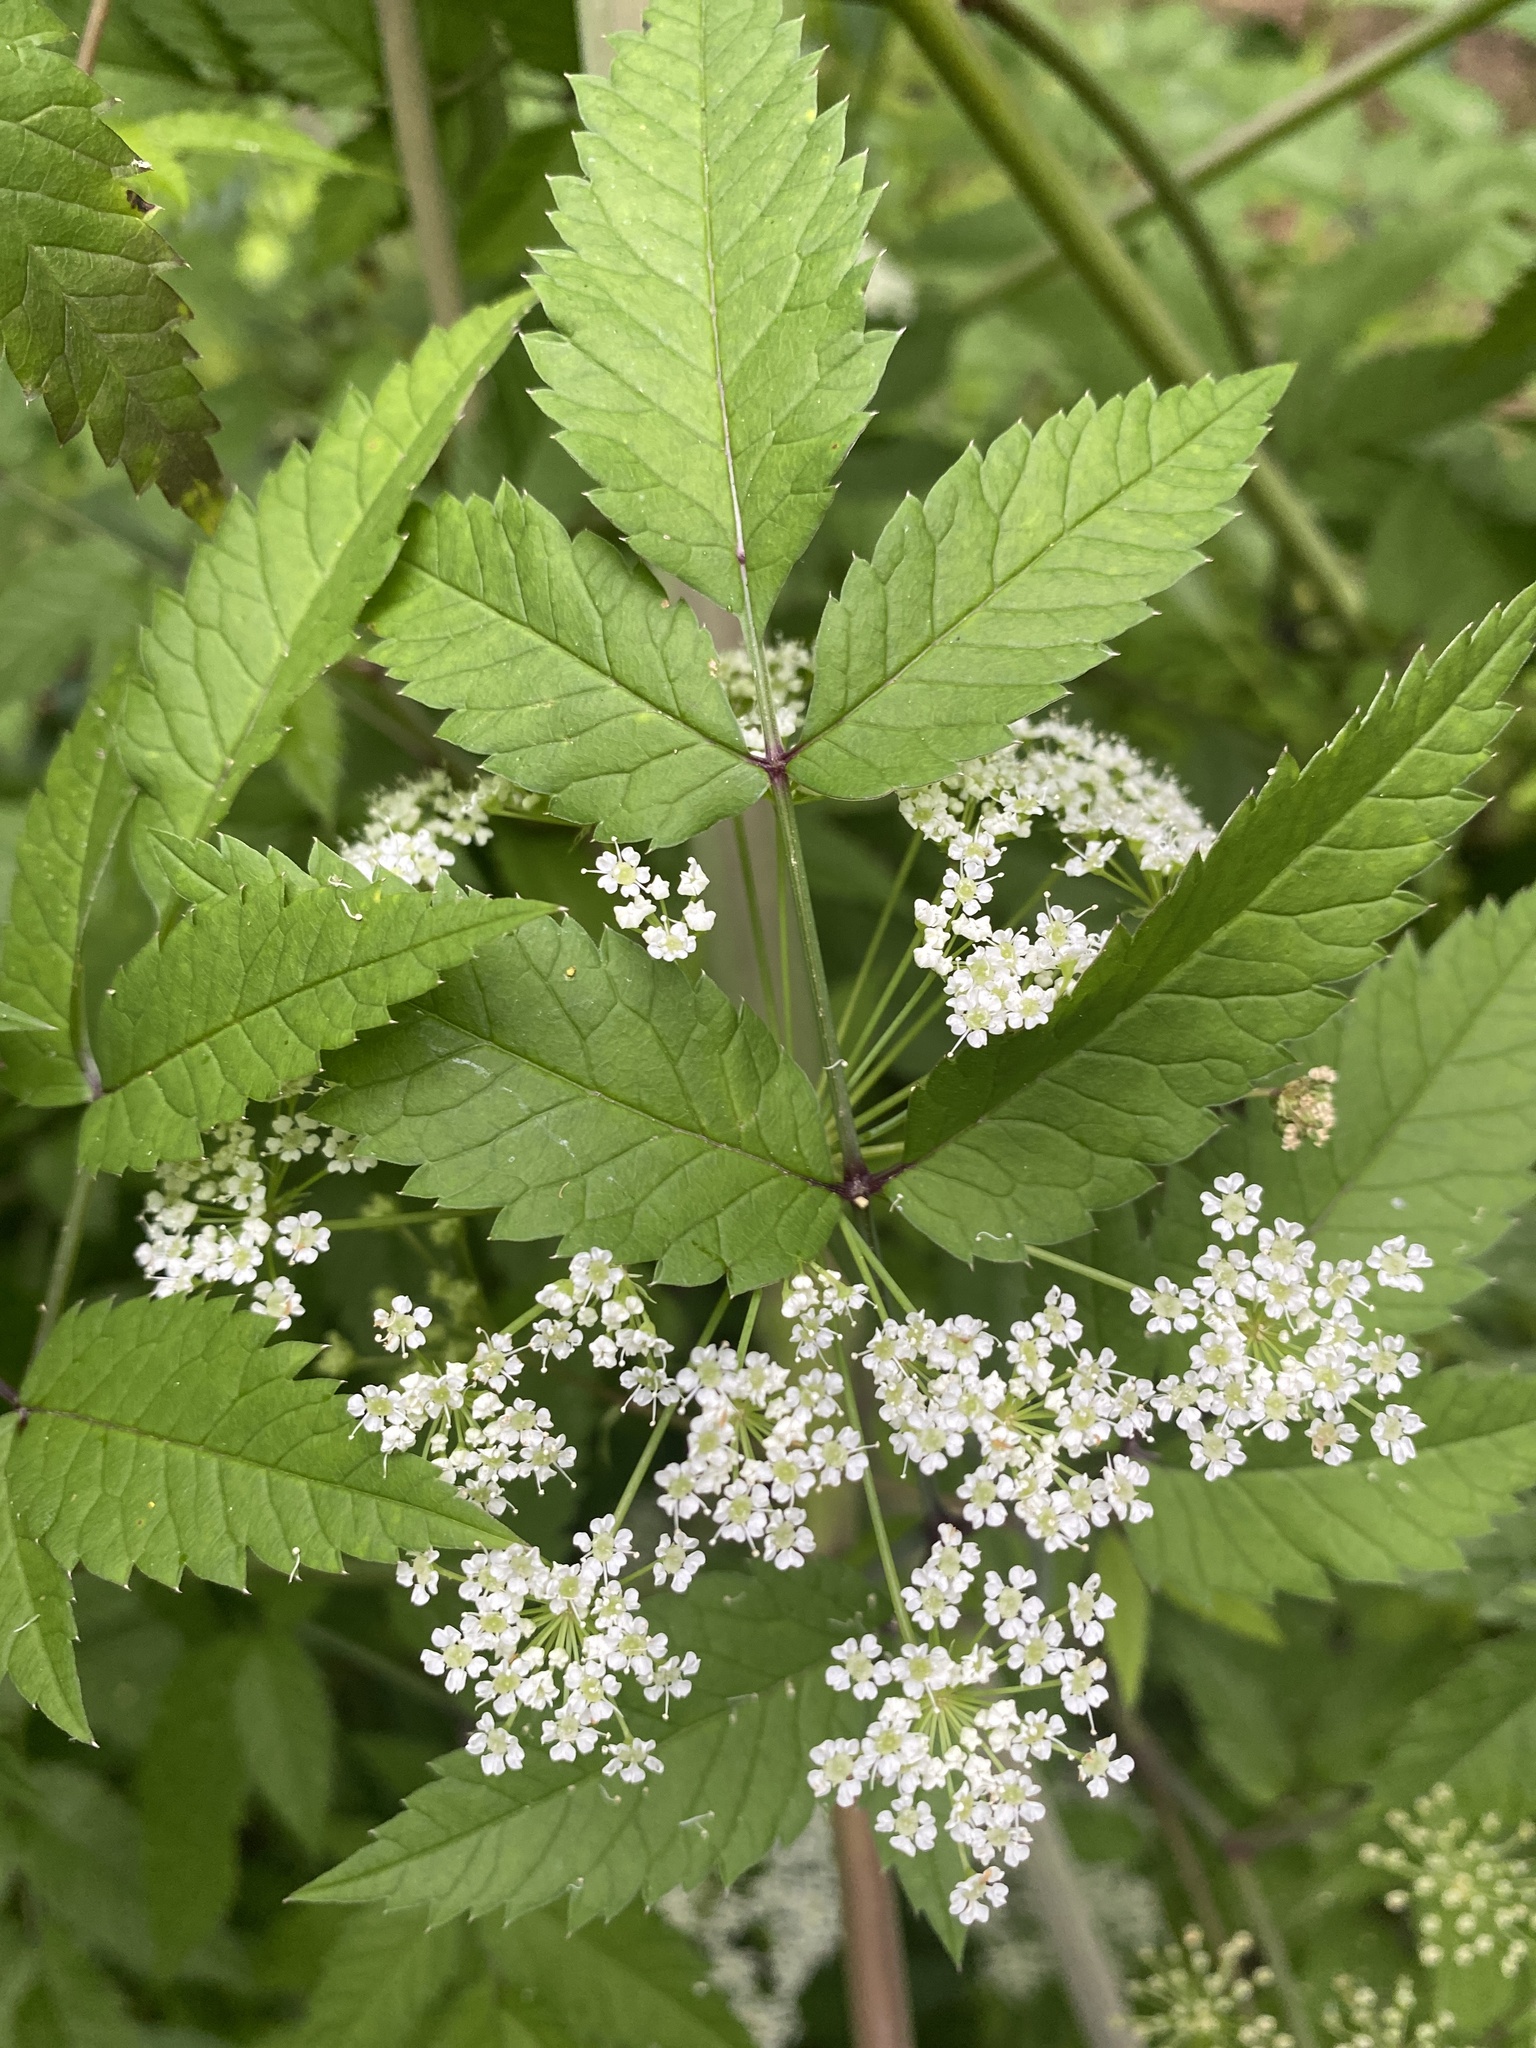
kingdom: Plantae
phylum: Tracheophyta
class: Magnoliopsida
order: Apiales
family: Apiaceae
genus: Cicuta
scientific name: Cicuta maculata
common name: Spotted cowbane
